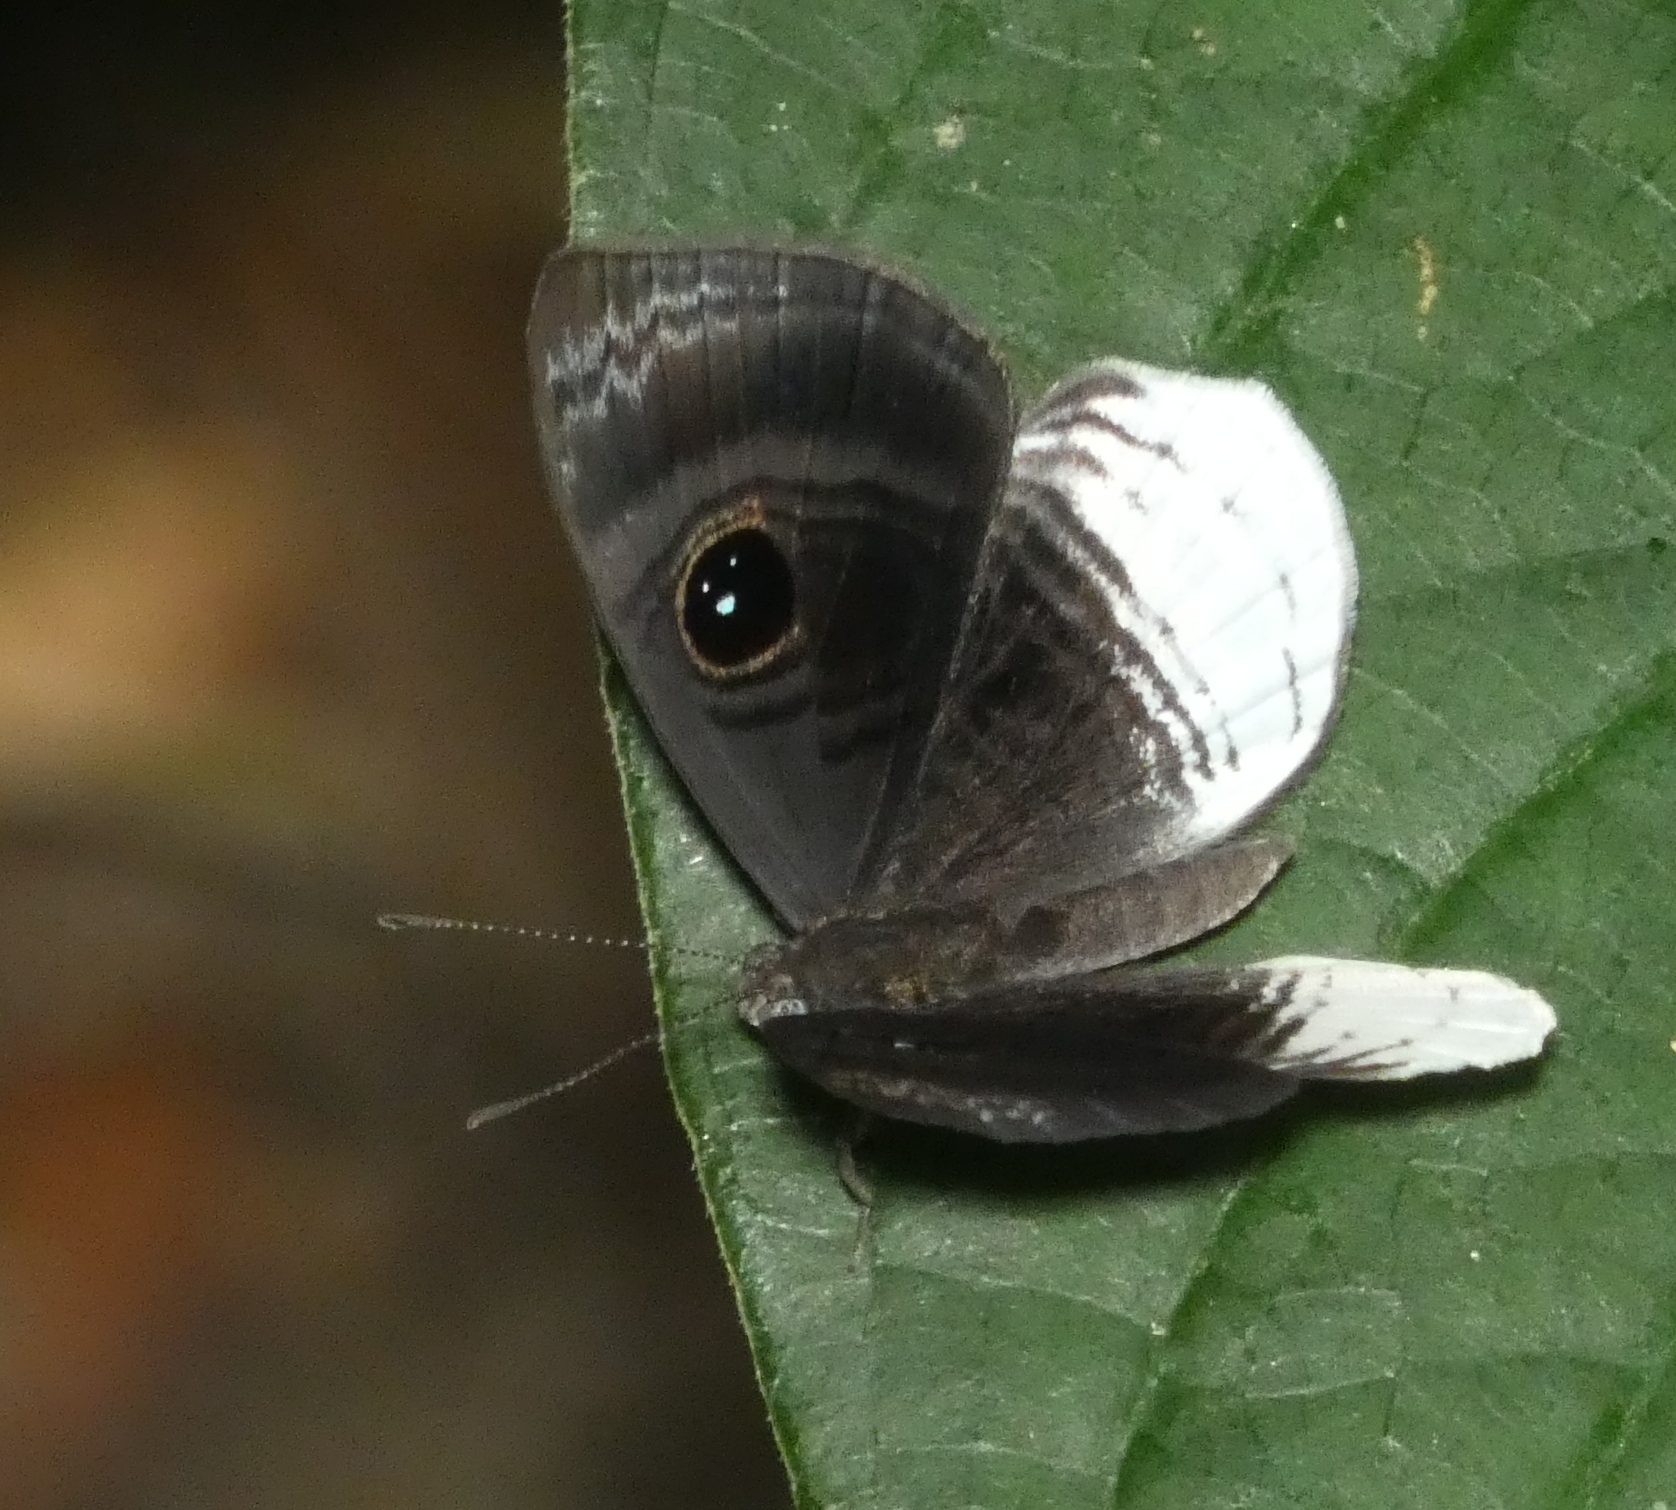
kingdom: Animalia
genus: Mesosemia
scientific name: Mesosemia nyctea
